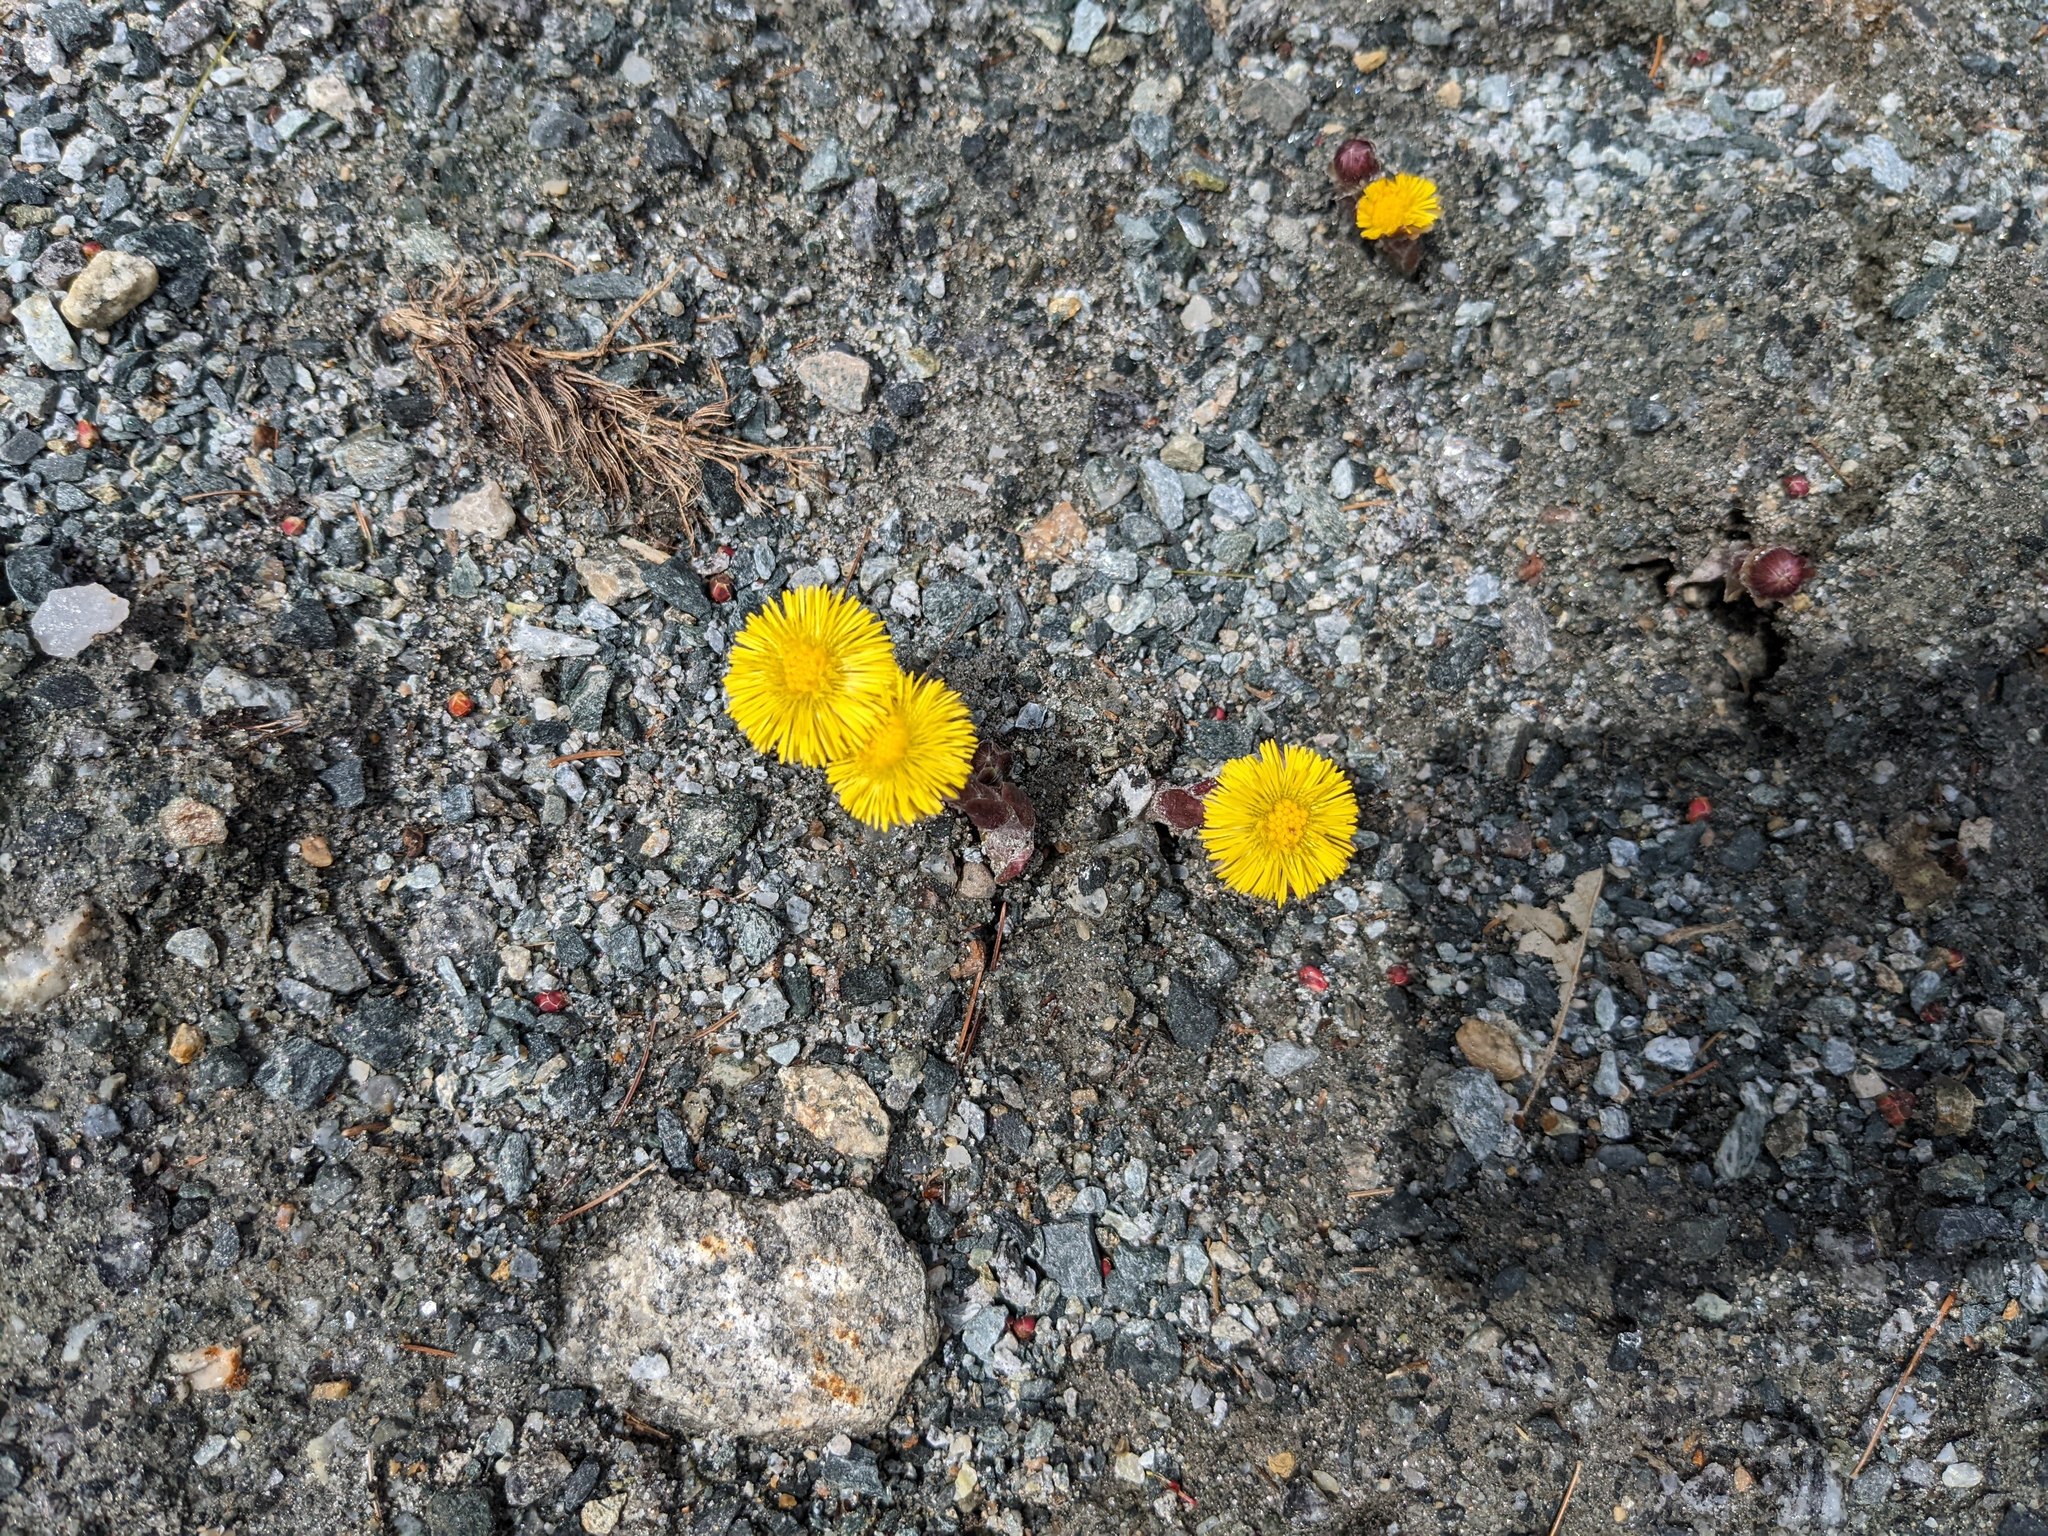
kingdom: Plantae
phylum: Tracheophyta
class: Magnoliopsida
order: Asterales
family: Asteraceae
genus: Tussilago
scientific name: Tussilago farfara
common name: Coltsfoot
